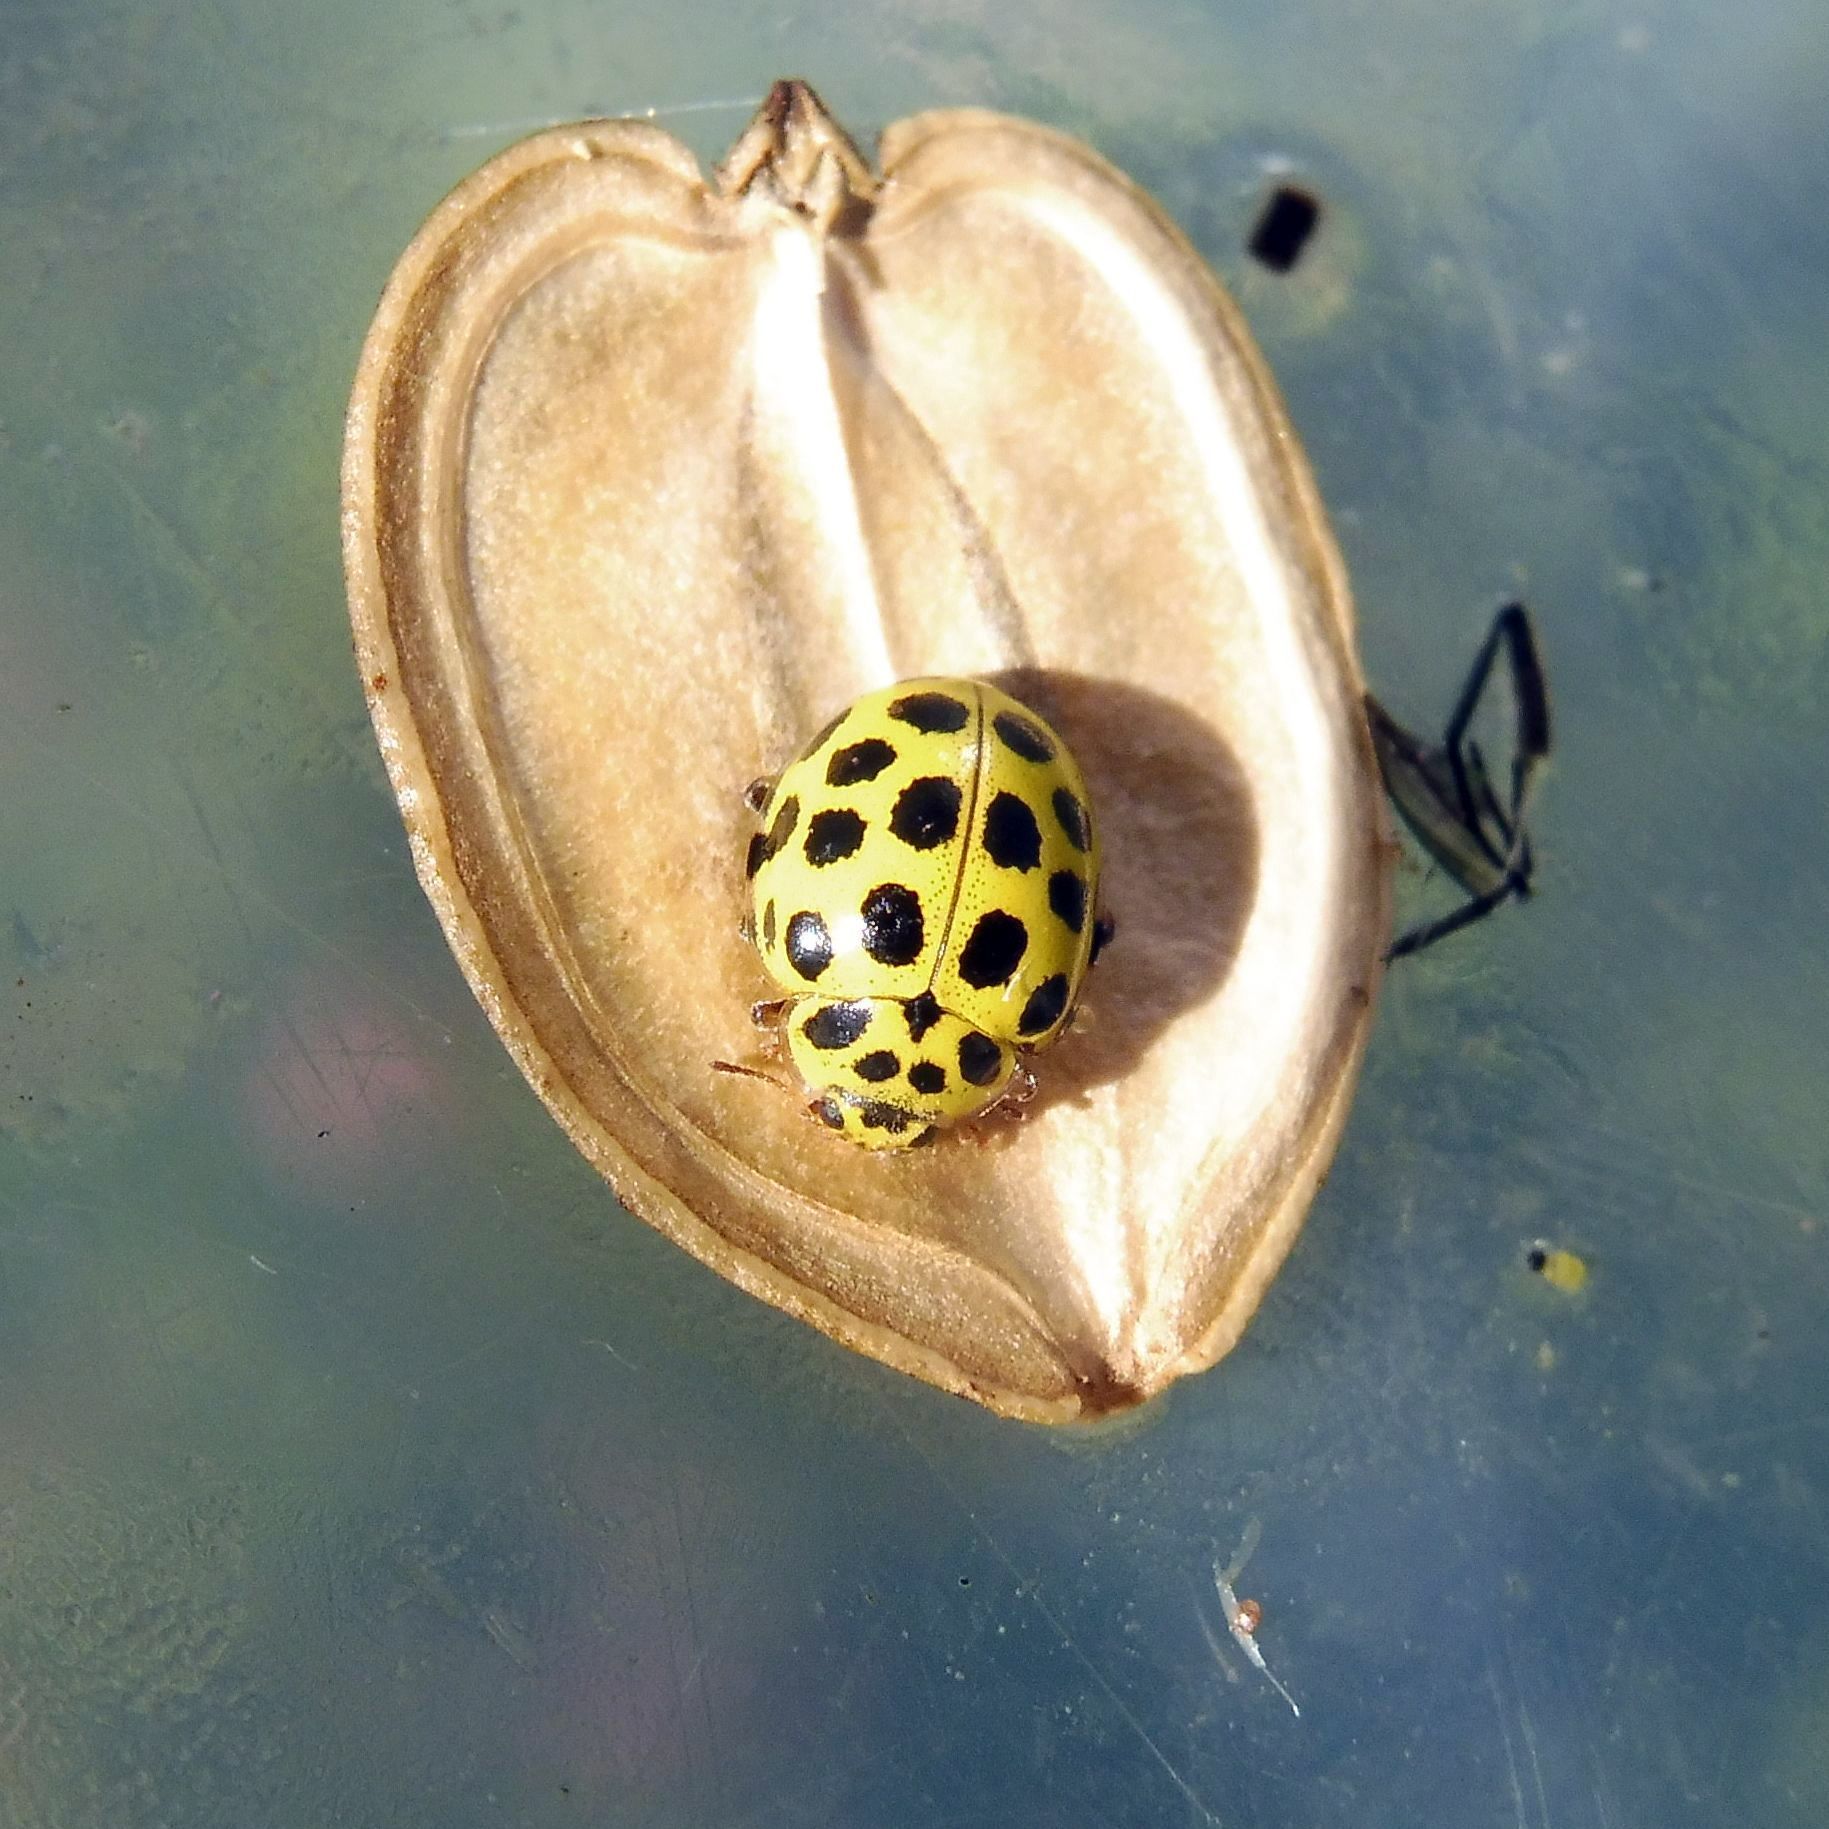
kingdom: Animalia
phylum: Arthropoda
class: Insecta
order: Coleoptera
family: Coccinellidae
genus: Psyllobora
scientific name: Psyllobora vigintiduopunctata
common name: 22-spot ladybird
